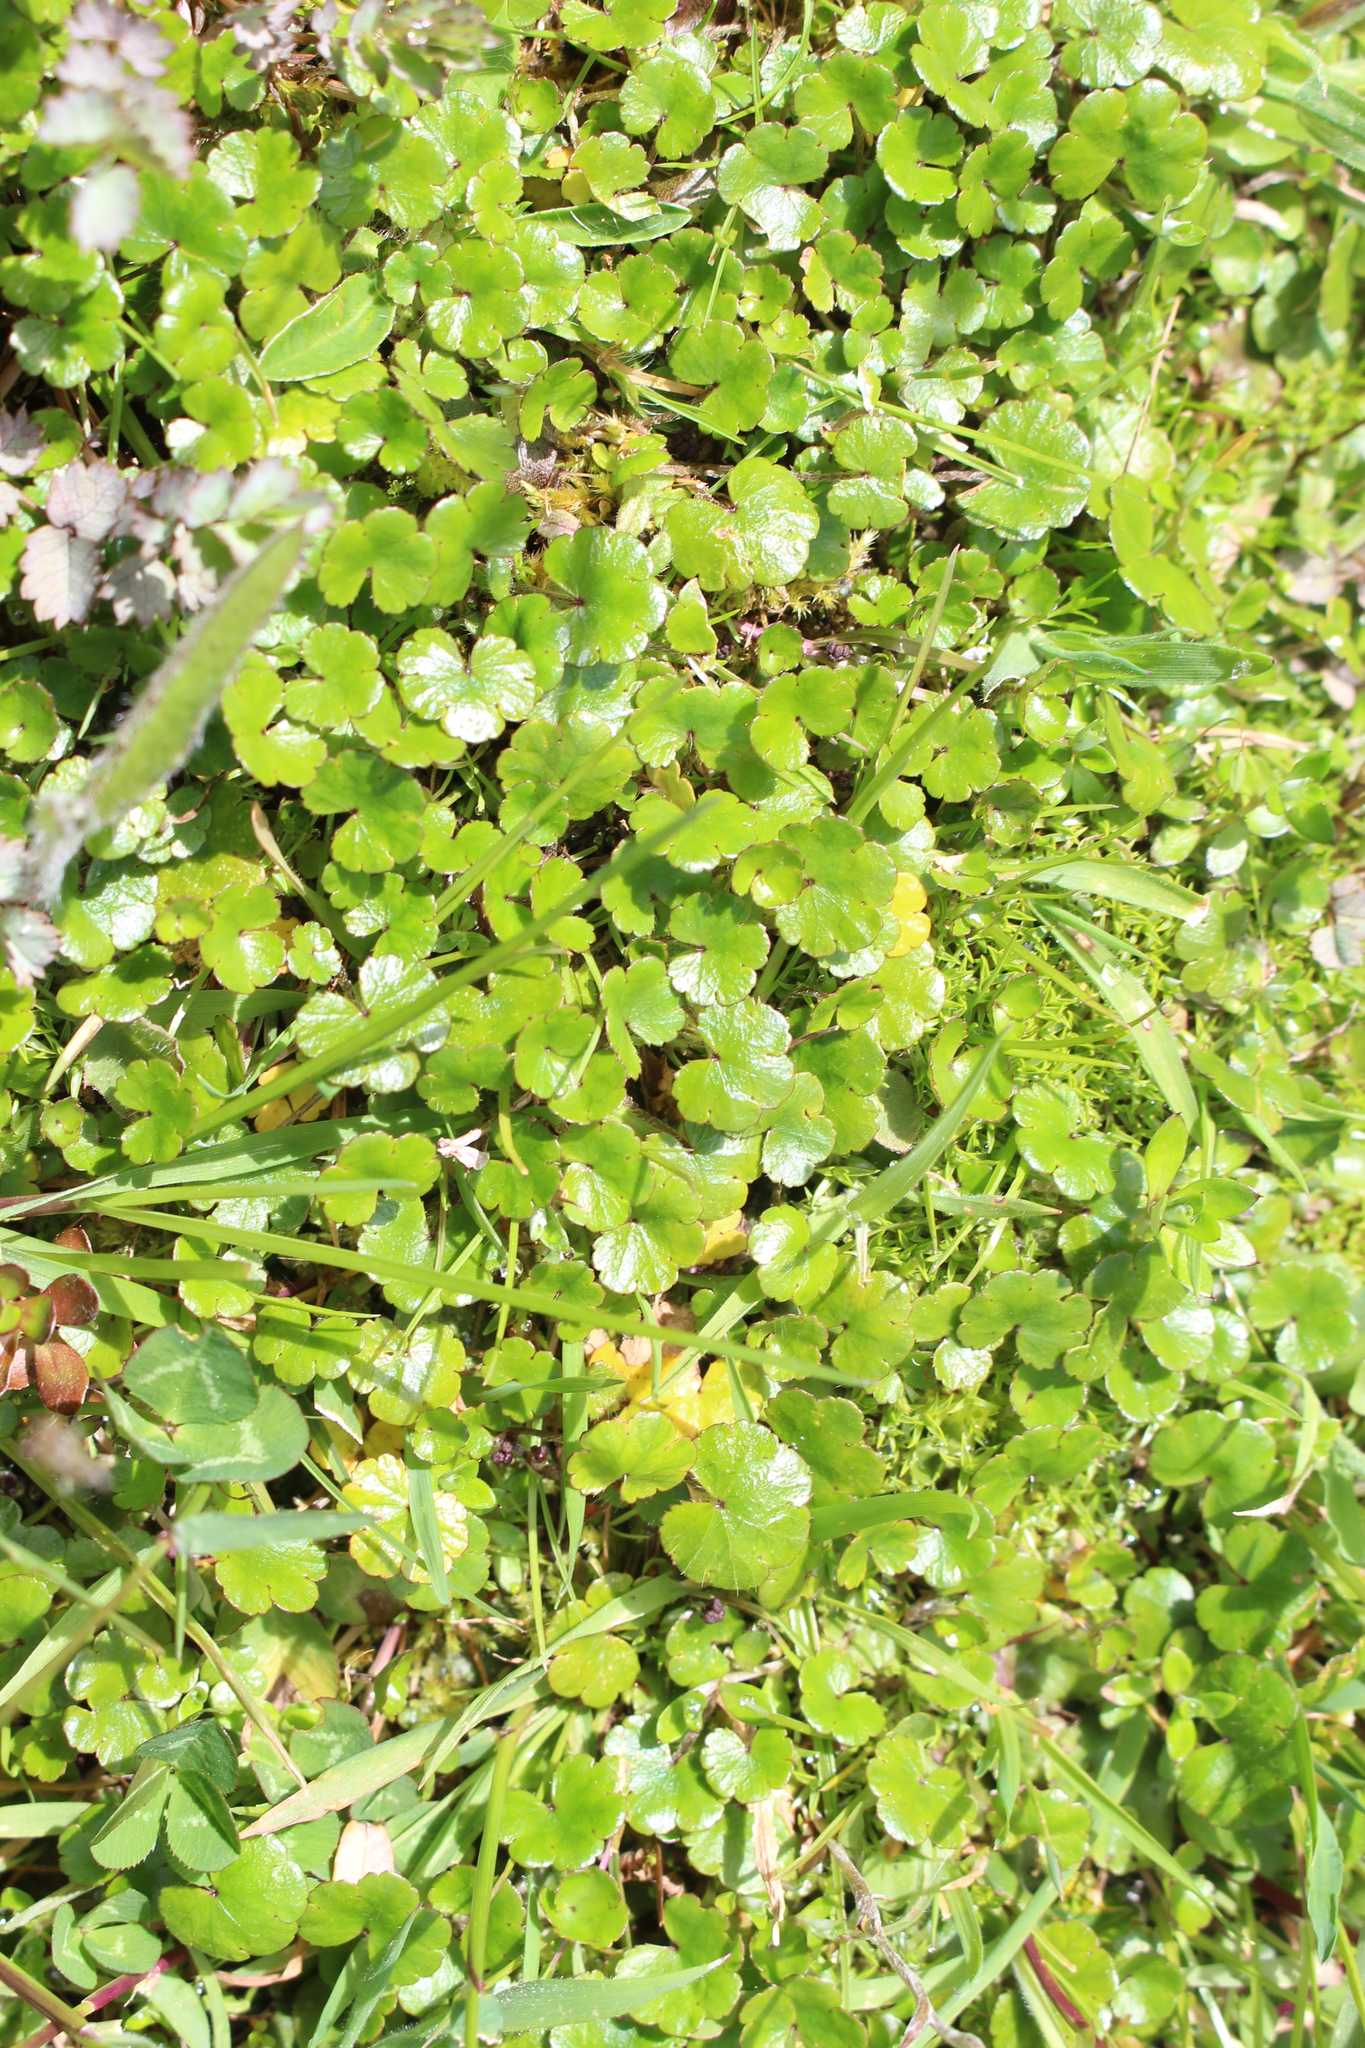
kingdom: Plantae
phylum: Tracheophyta
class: Magnoliopsida
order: Apiales
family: Araliaceae
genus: Hydrocotyle
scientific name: Hydrocotyle novae-zeelandiae
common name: New zealand pennywort
